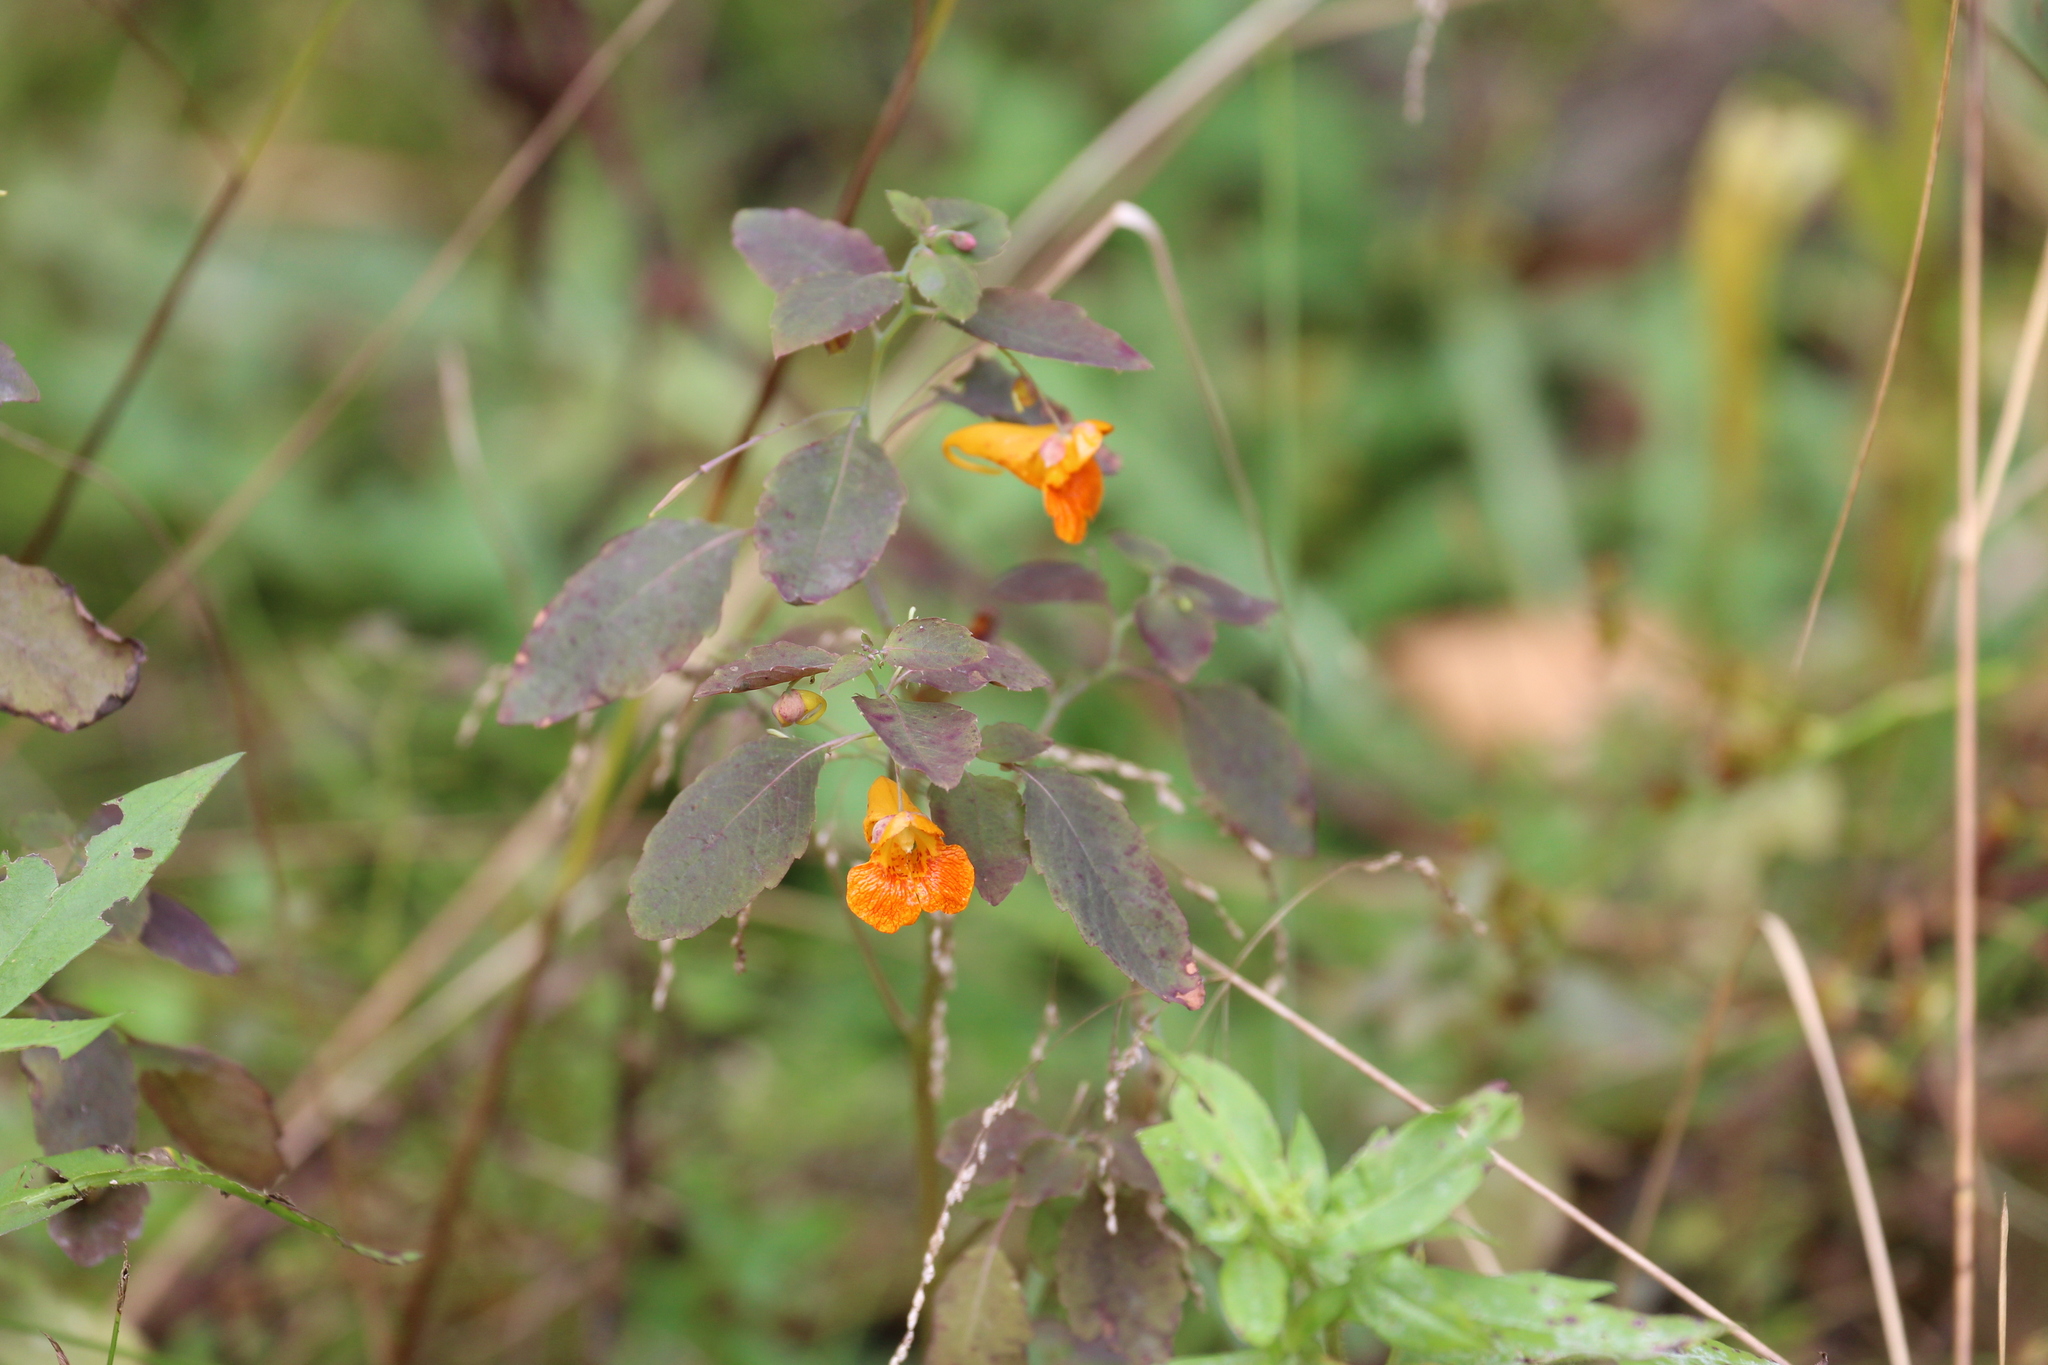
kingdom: Plantae
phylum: Tracheophyta
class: Magnoliopsida
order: Ericales
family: Balsaminaceae
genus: Impatiens
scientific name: Impatiens capensis
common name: Orange balsam
